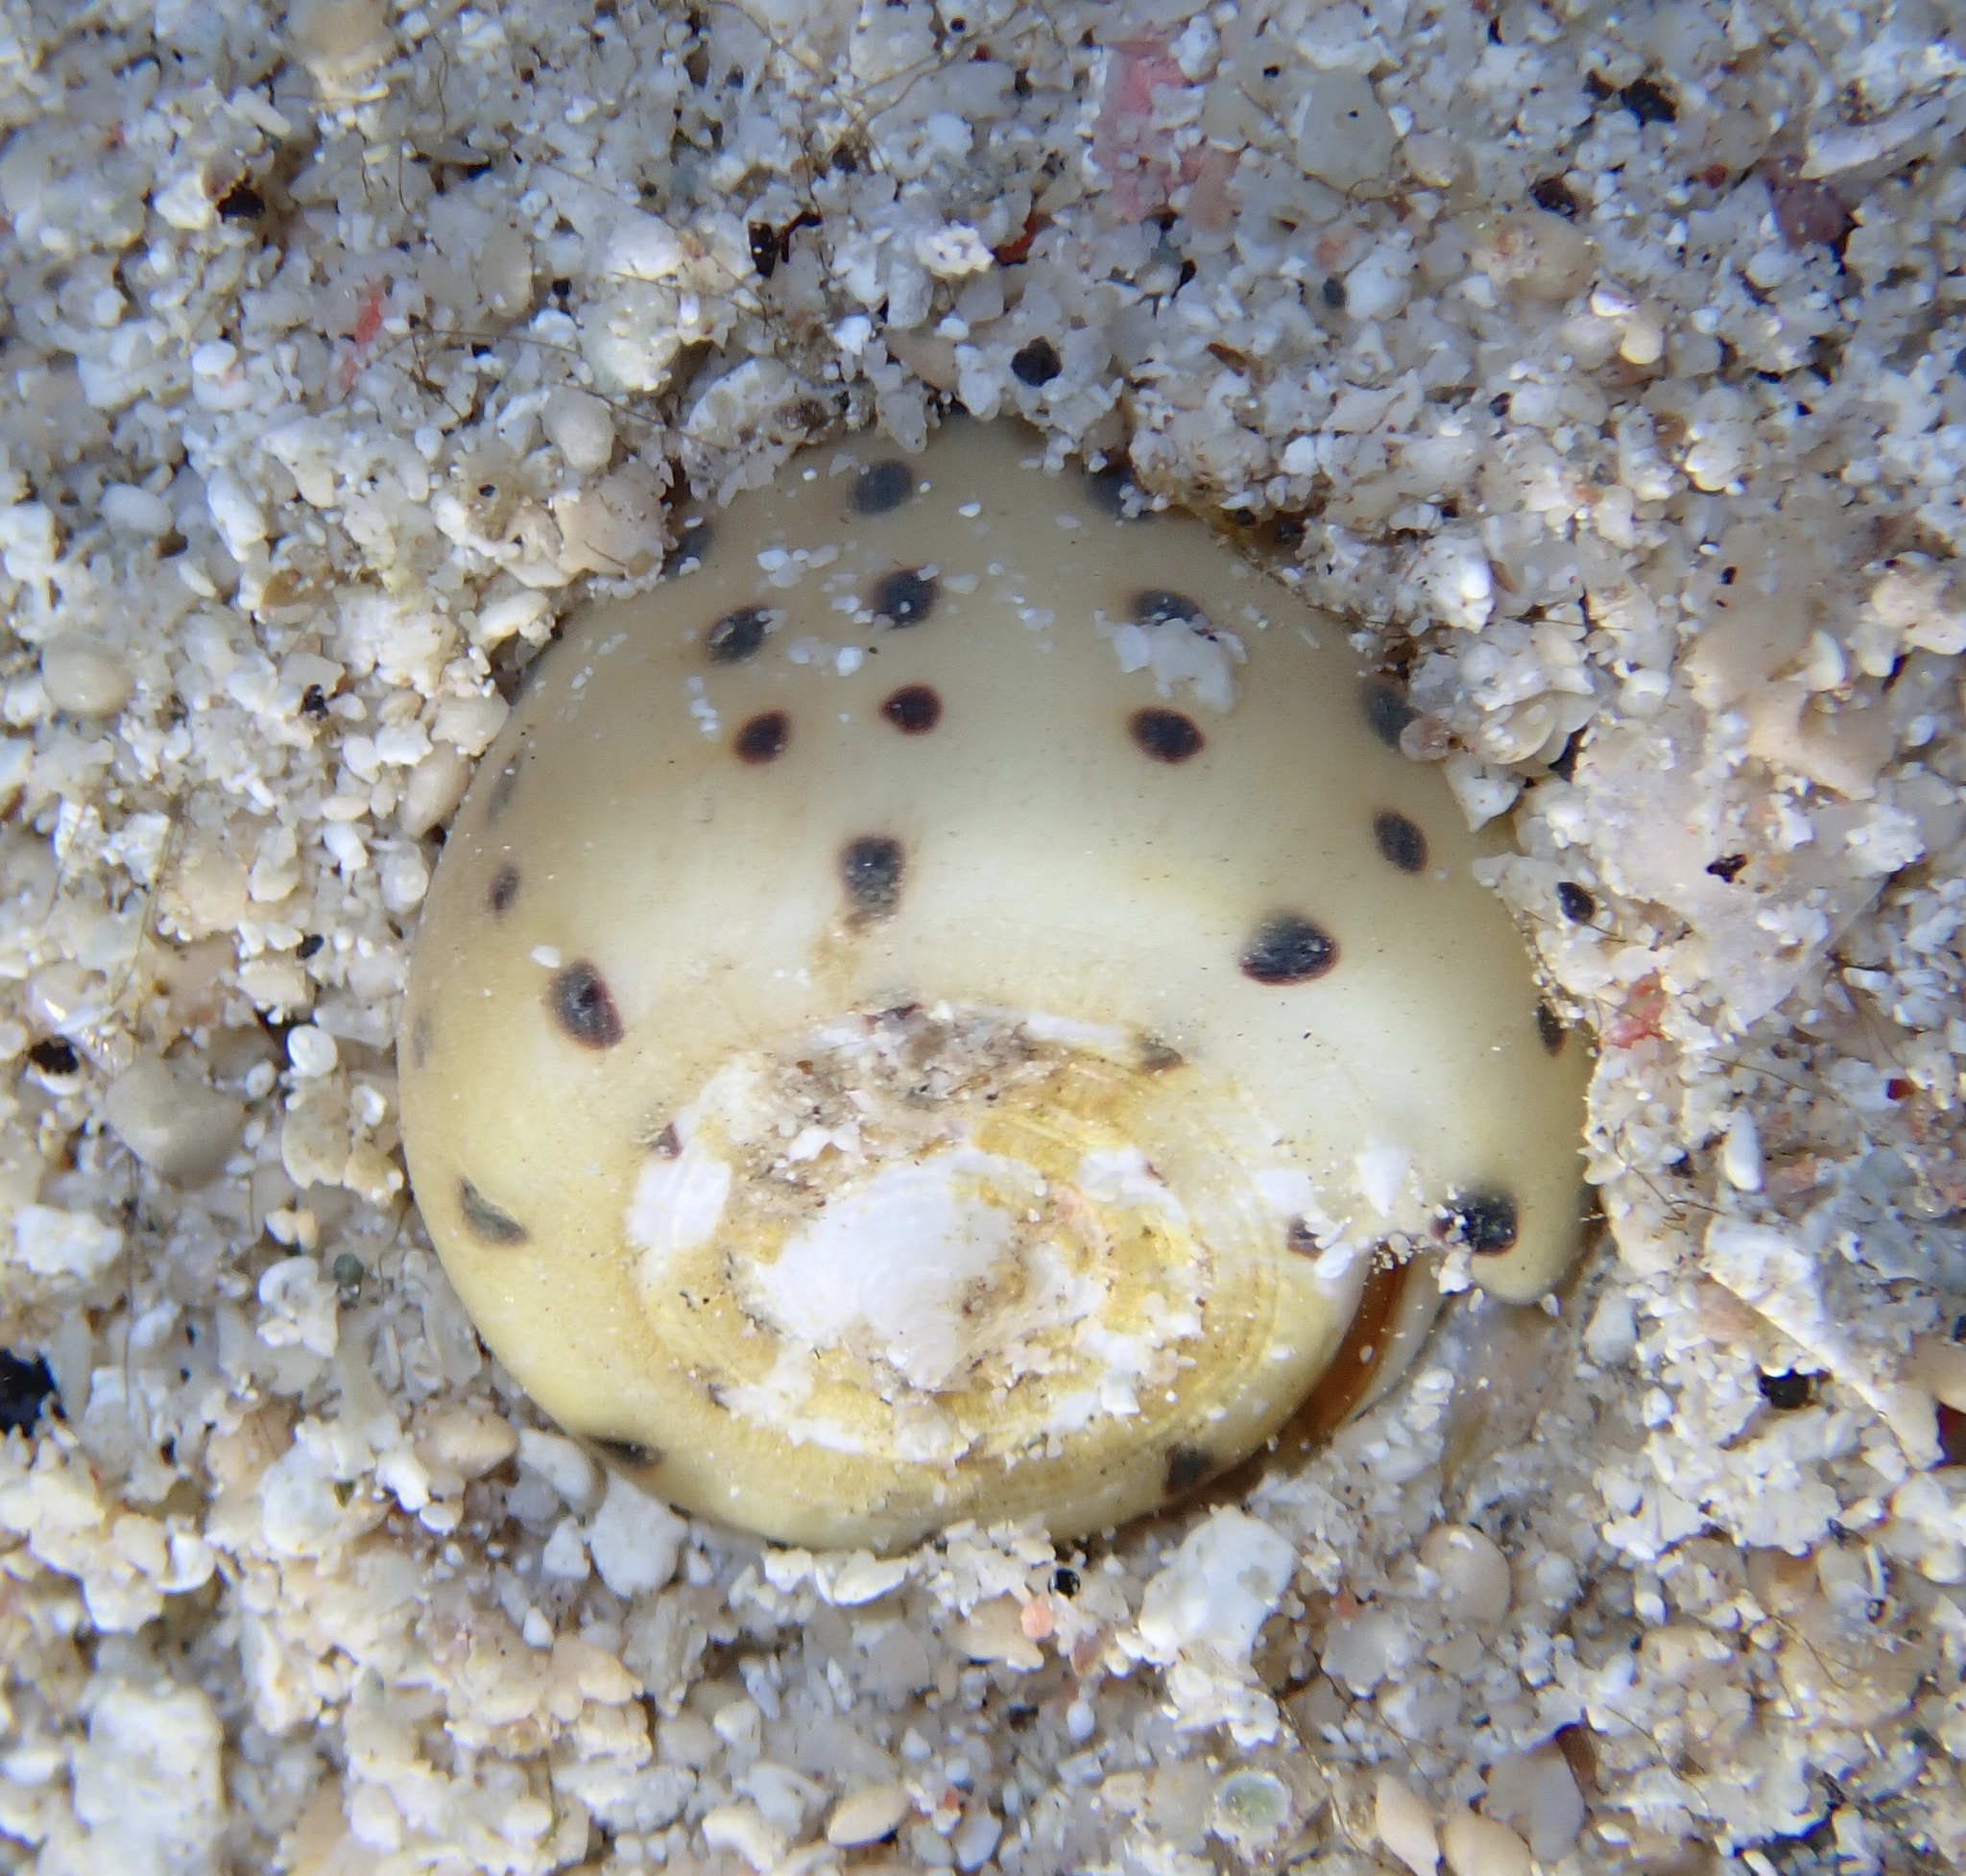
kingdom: Animalia
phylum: Mollusca
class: Gastropoda
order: Neogastropoda
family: Conidae
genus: Conus
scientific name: Conus eburneus
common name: Ivory cone
